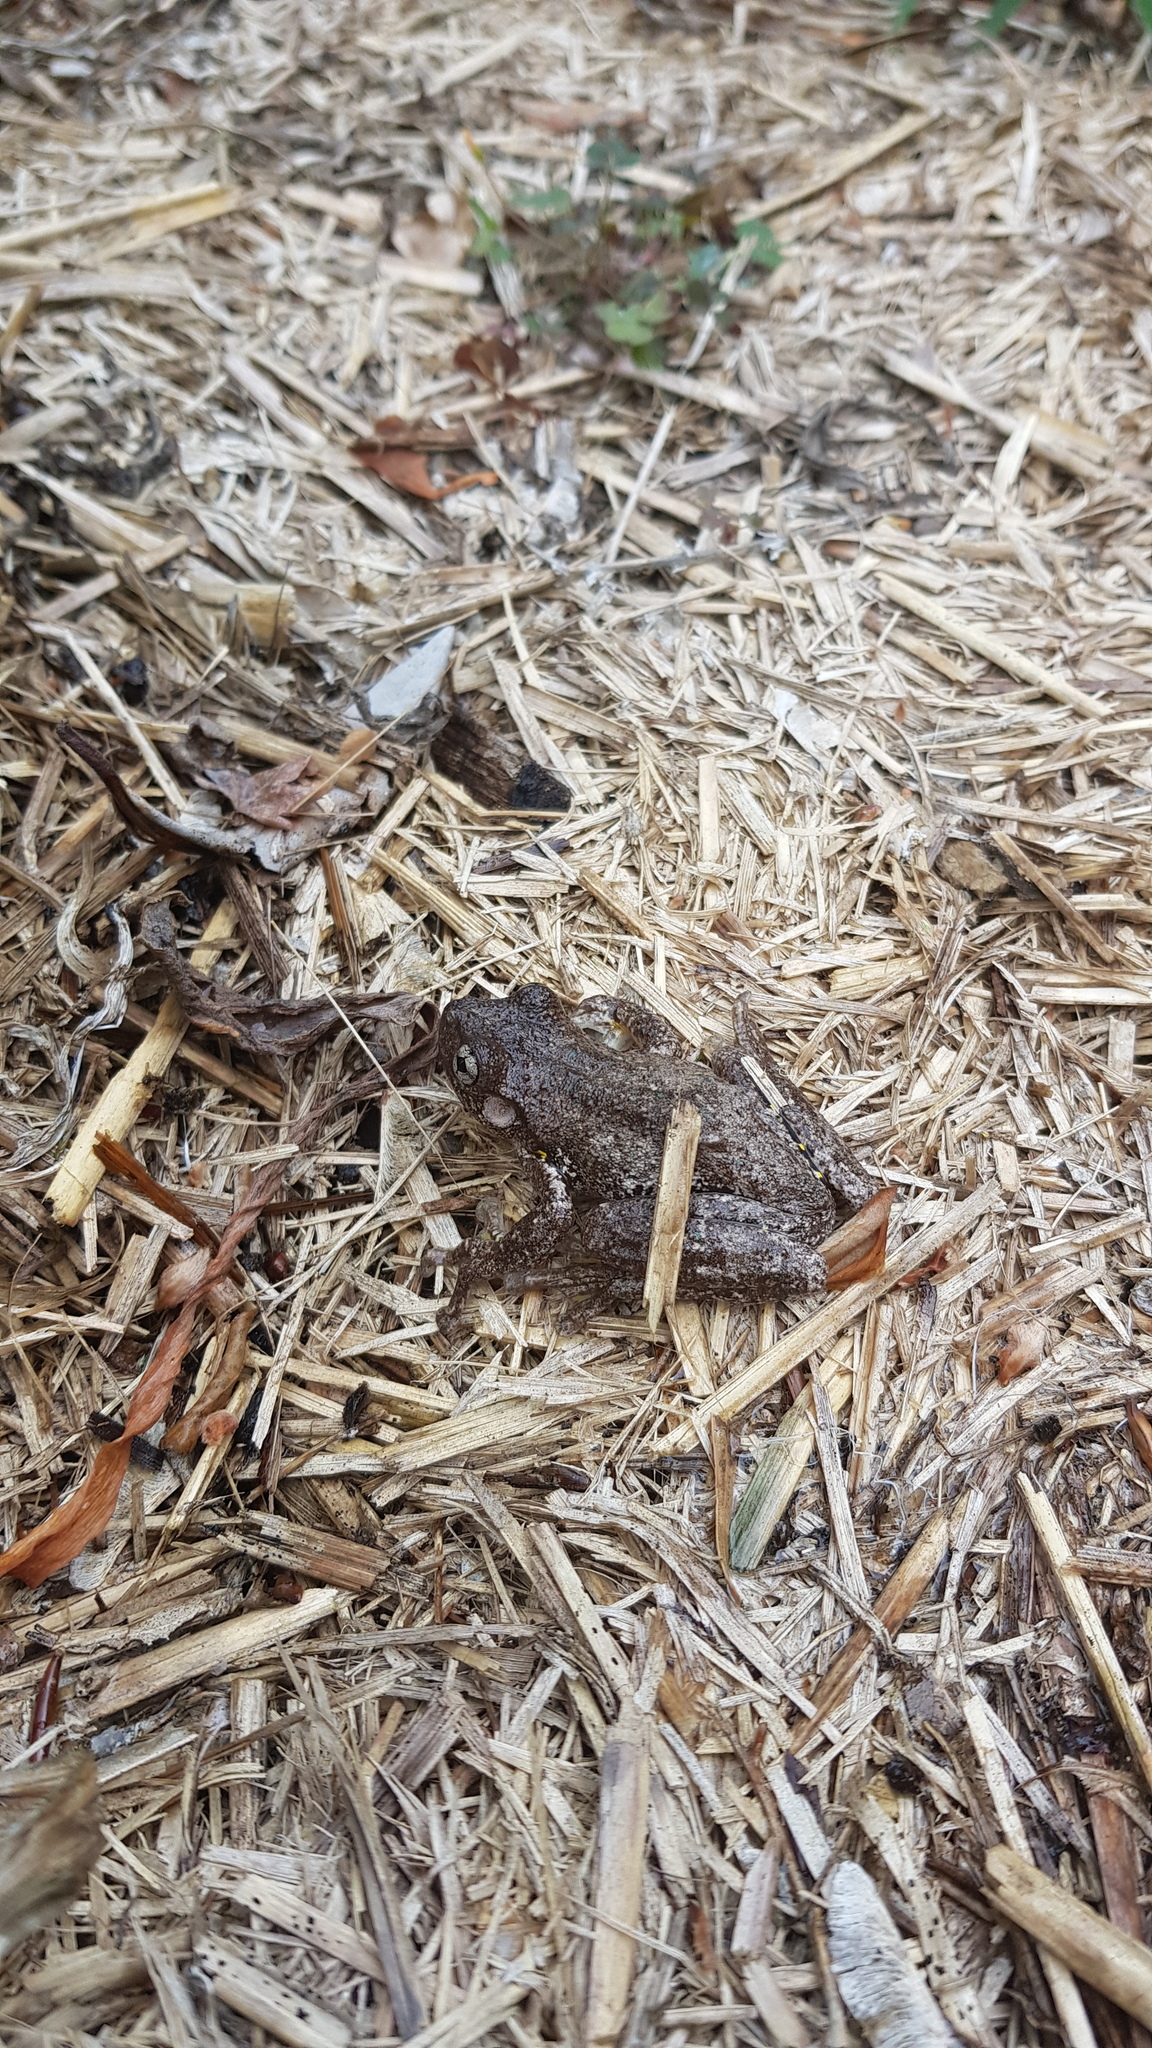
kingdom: Animalia
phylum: Chordata
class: Amphibia
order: Anura
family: Pelodryadidae
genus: Litoria
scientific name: Litoria peronii
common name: Emerald spotted treefrog
